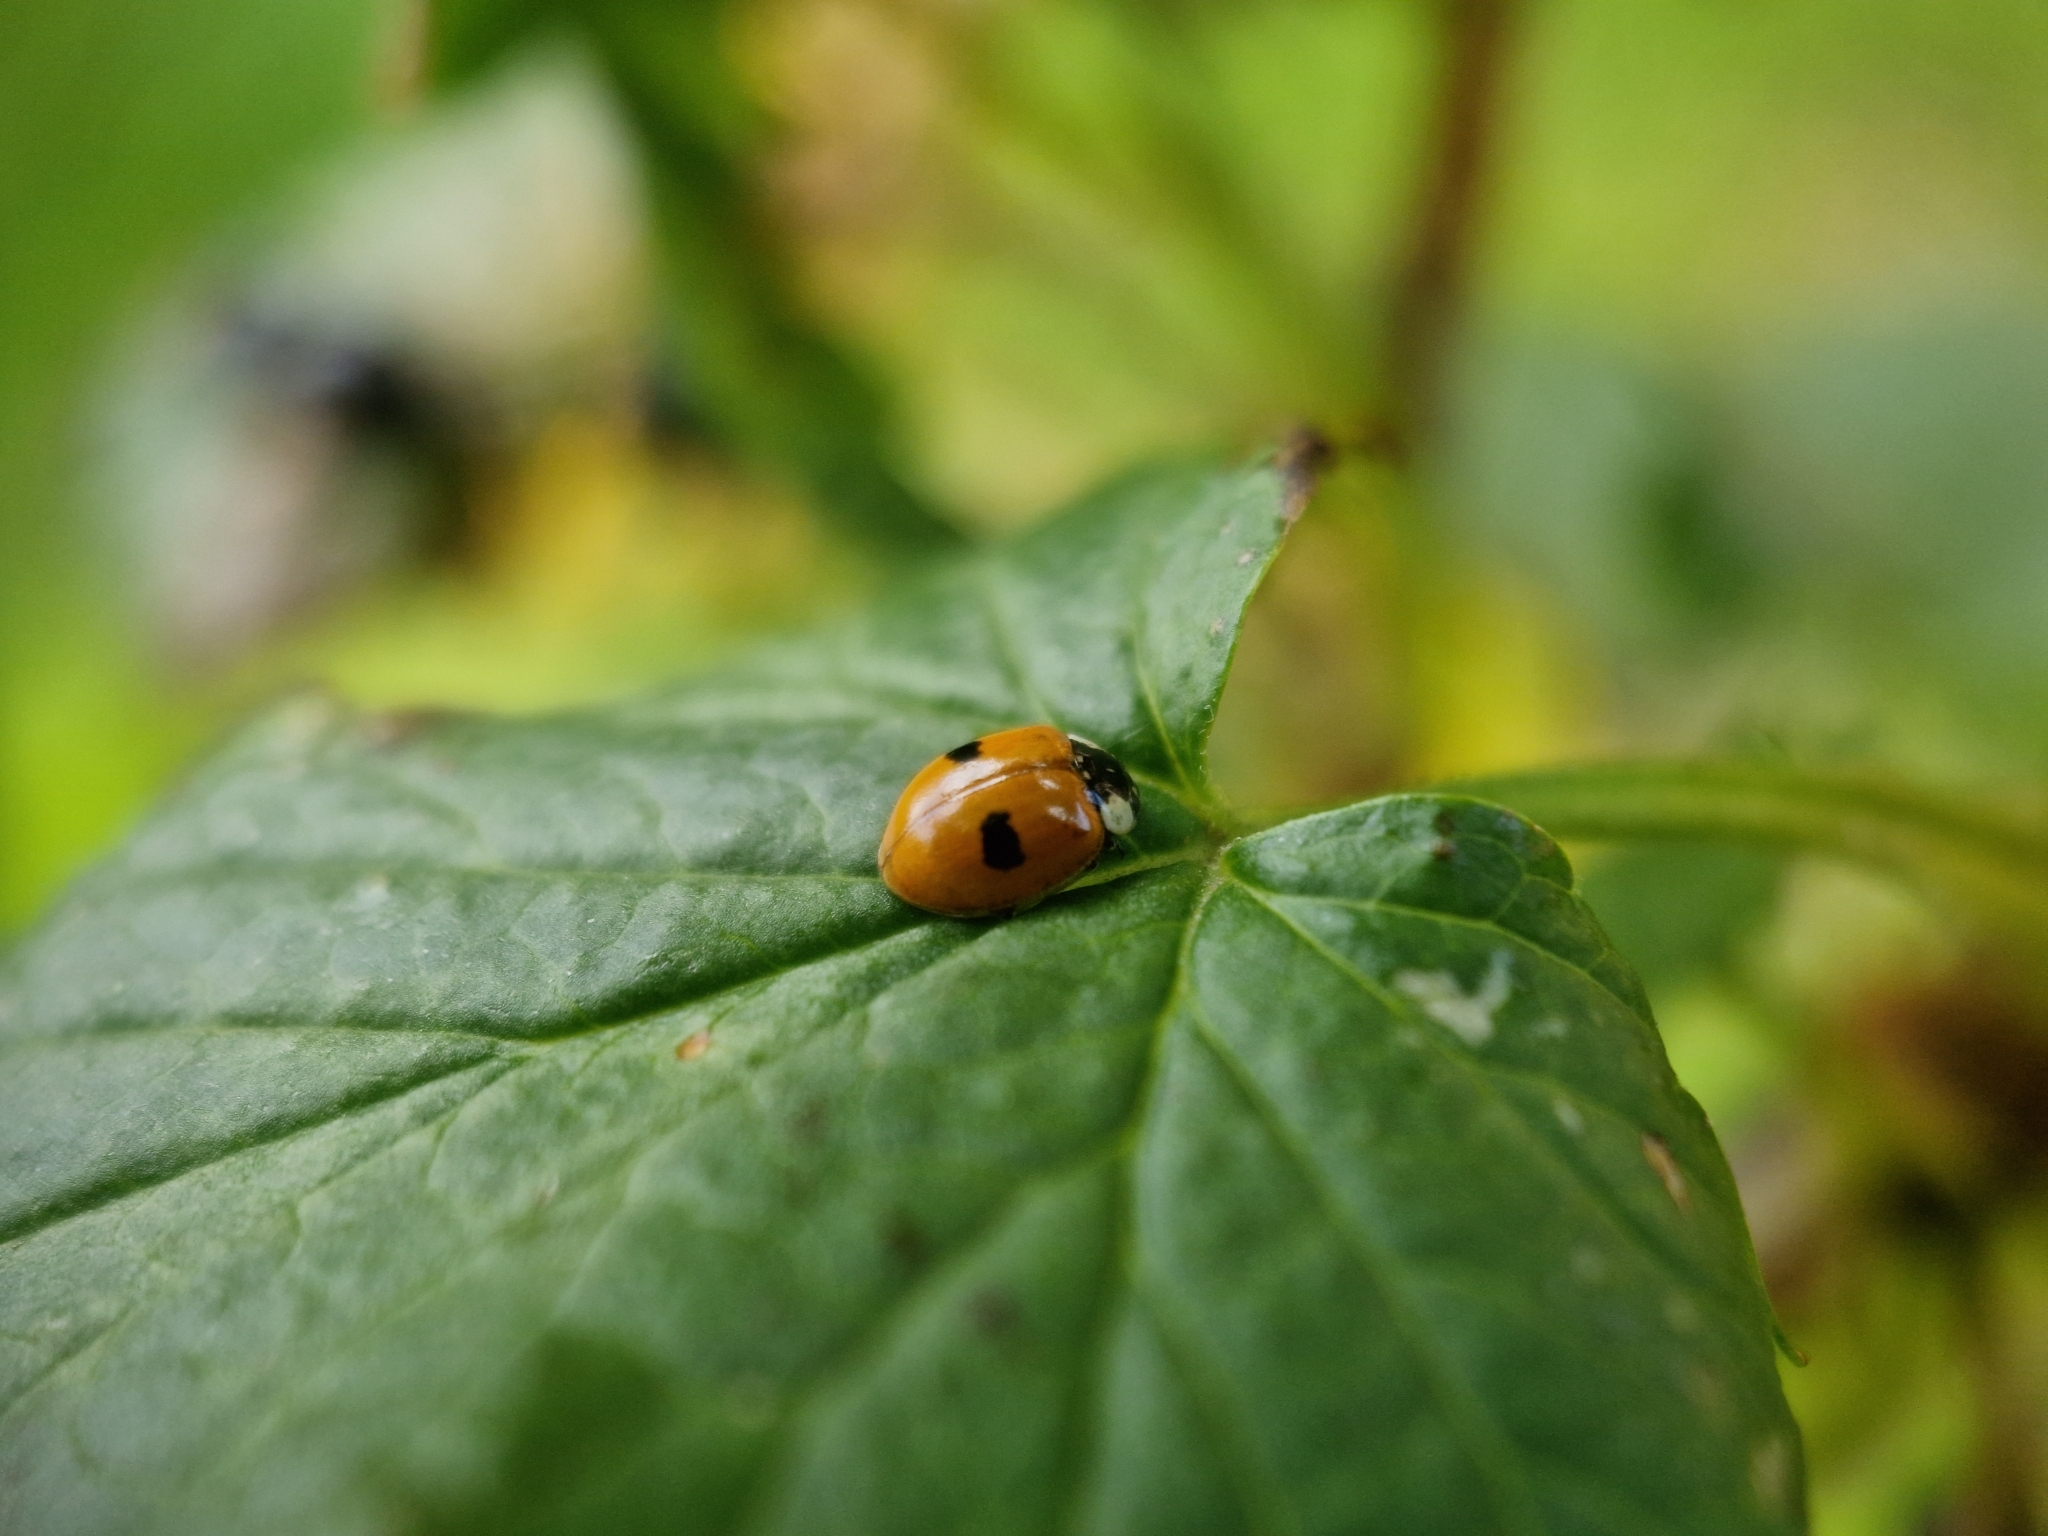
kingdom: Animalia
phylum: Arthropoda
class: Insecta
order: Coleoptera
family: Coccinellidae
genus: Adalia
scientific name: Adalia bipunctata
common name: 2-spot ladybird
